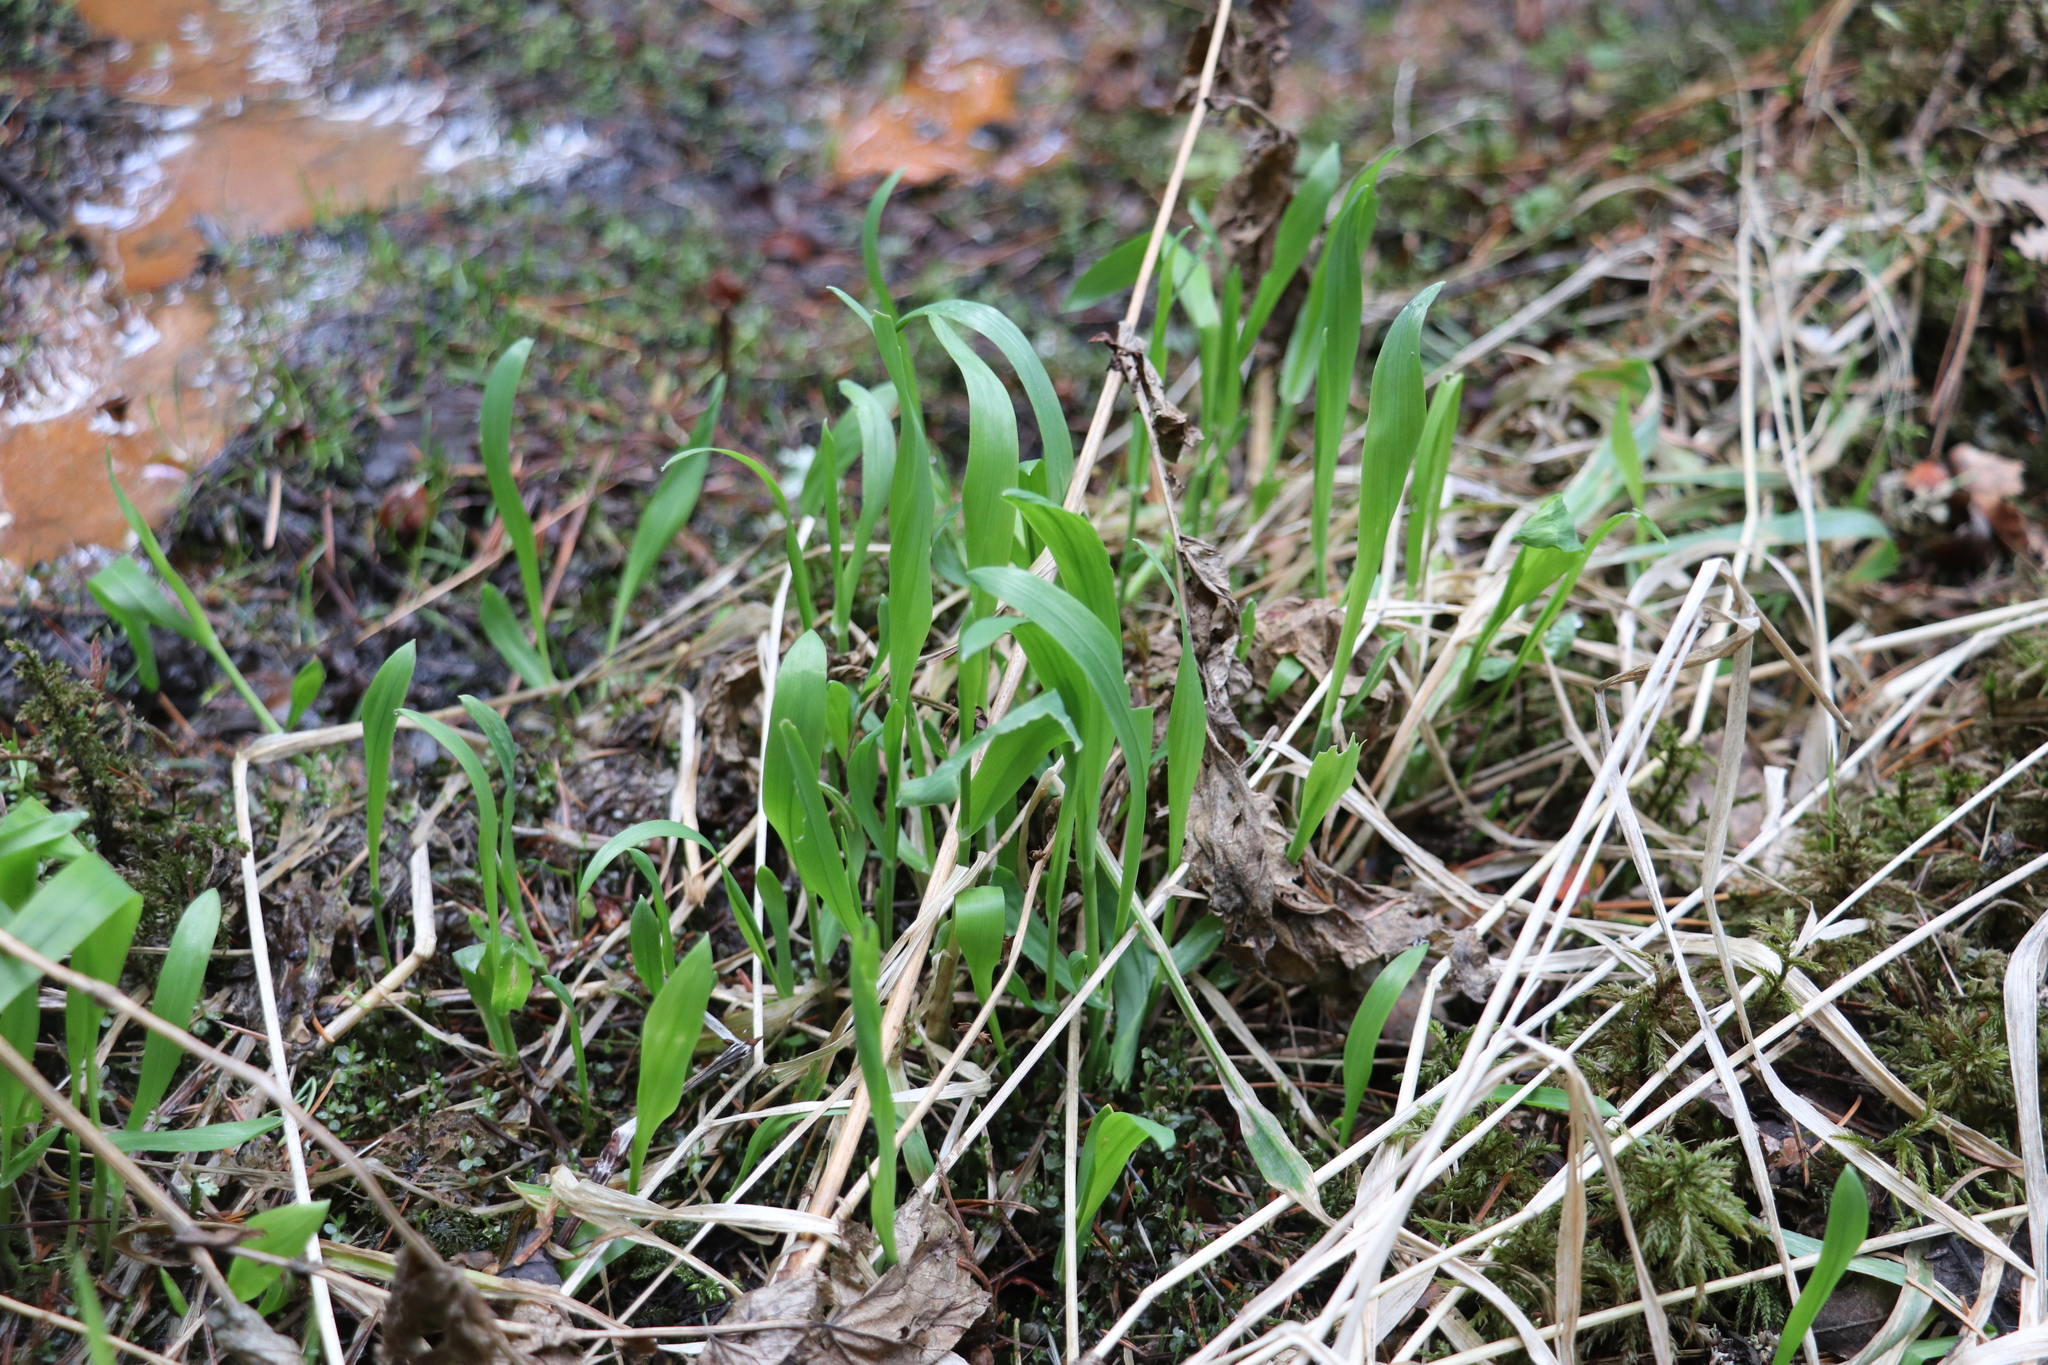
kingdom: Plantae
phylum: Tracheophyta
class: Liliopsida
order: Poales
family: Poaceae
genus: Milium
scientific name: Milium effusum
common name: Wood millet
